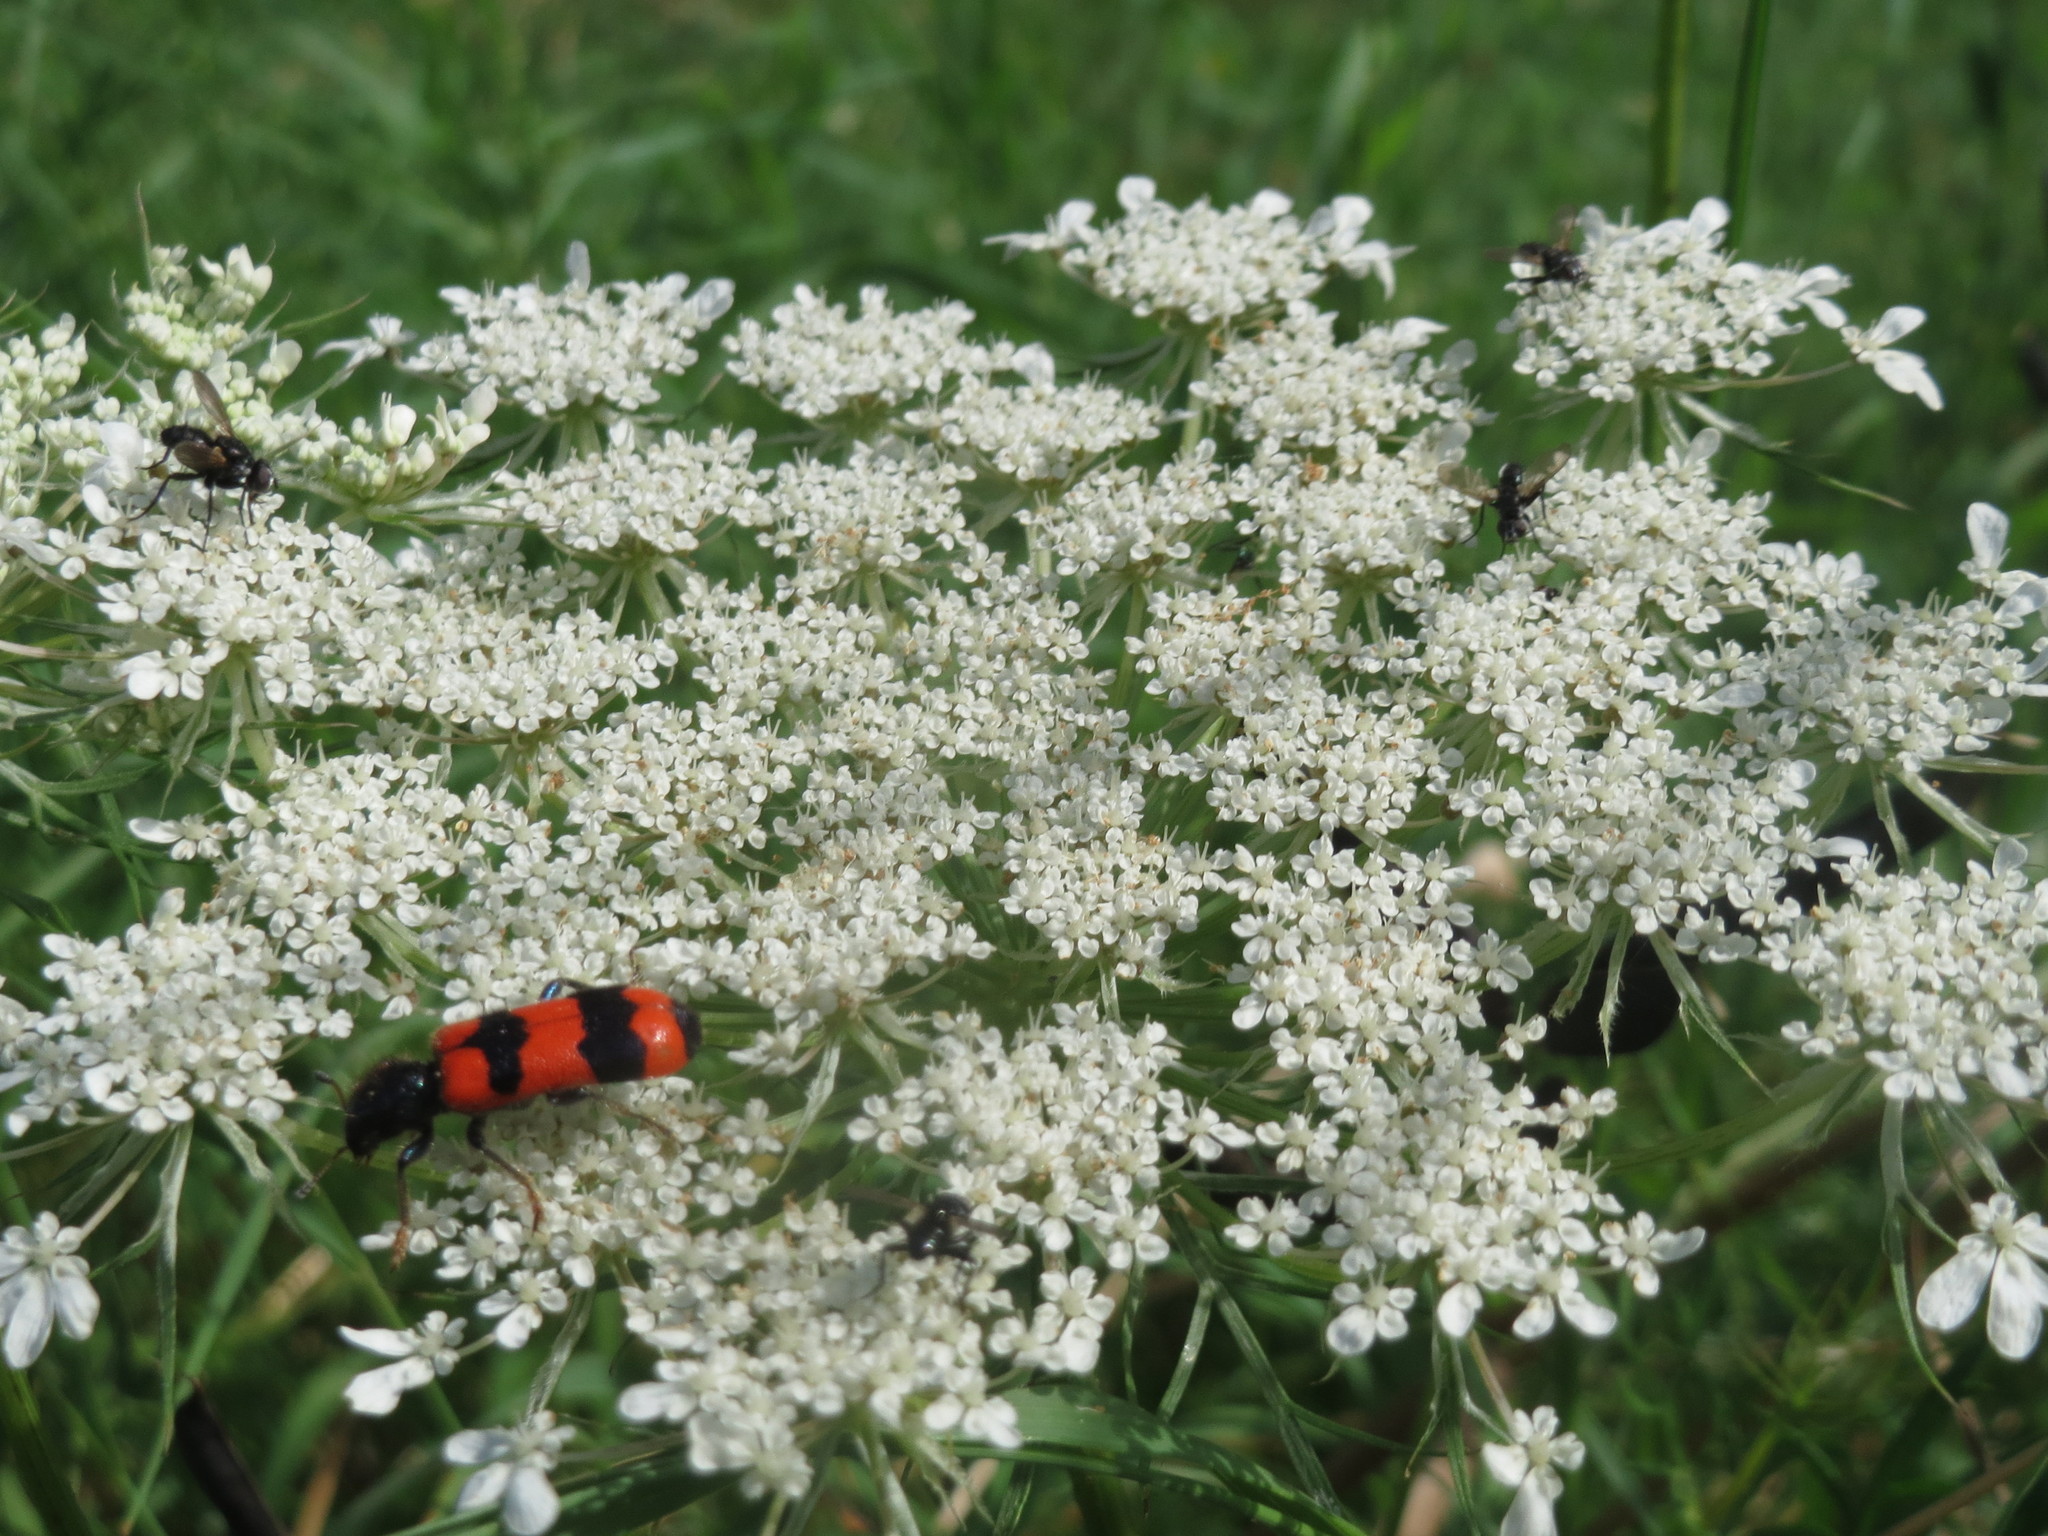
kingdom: Plantae
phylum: Tracheophyta
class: Magnoliopsida
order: Apiales
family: Apiaceae
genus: Daucus
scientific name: Daucus carota
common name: Wild carrot
